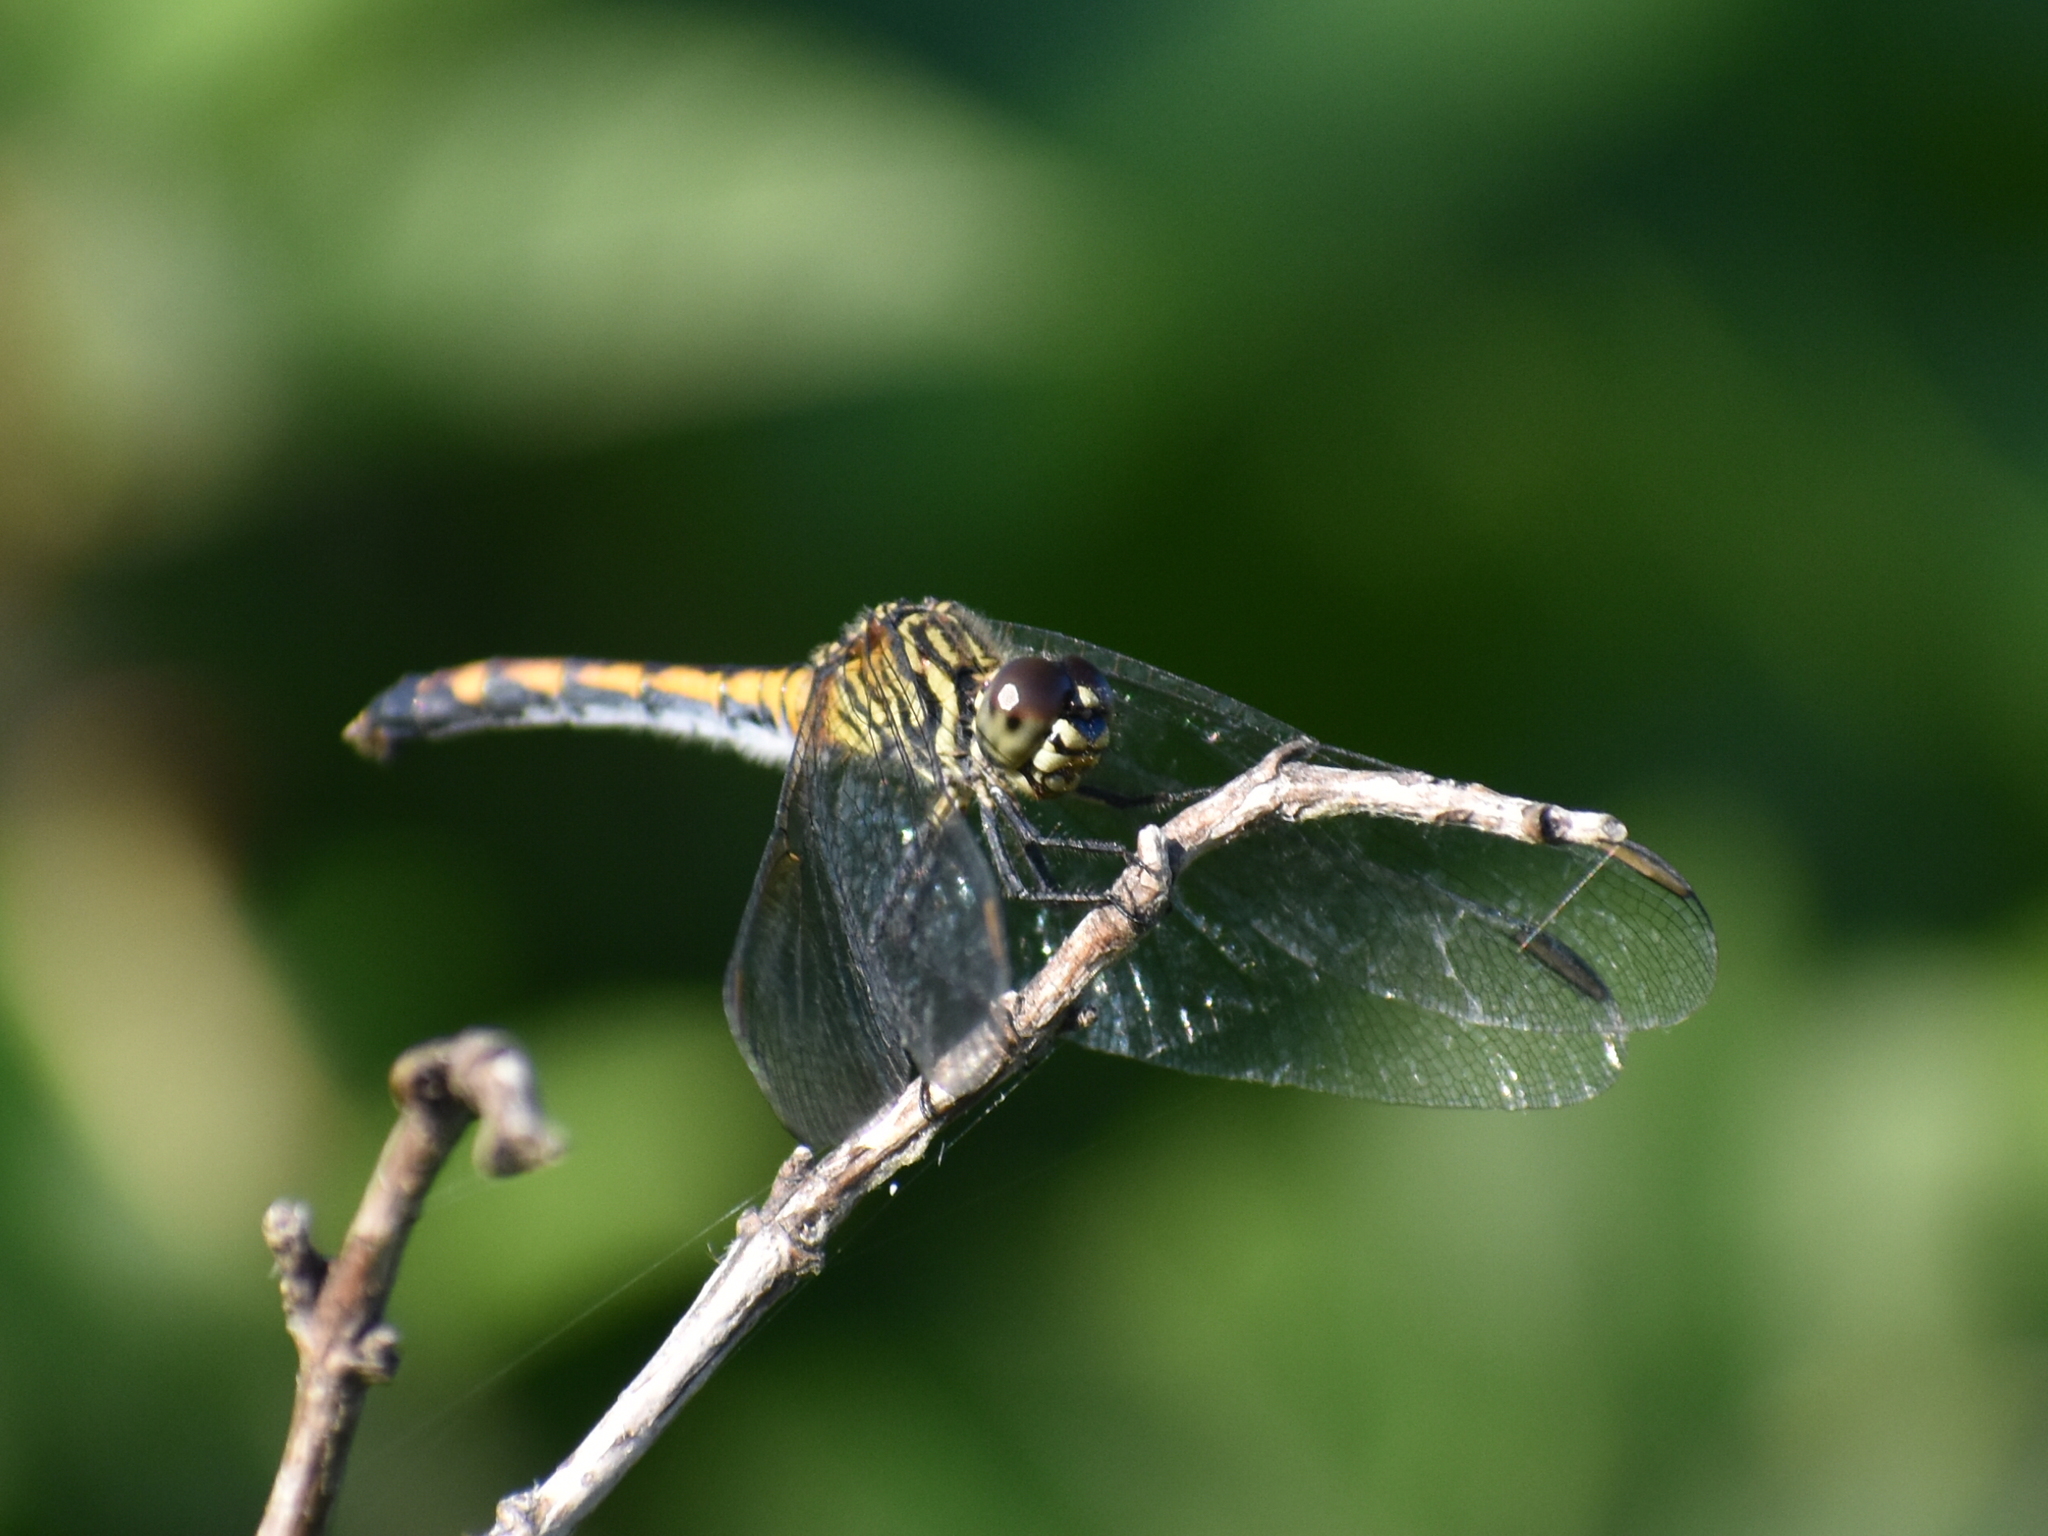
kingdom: Animalia
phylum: Arthropoda
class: Insecta
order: Odonata
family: Libellulidae
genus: Erythrodiplax
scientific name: Erythrodiplax berenice
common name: Seaside dragonlet
